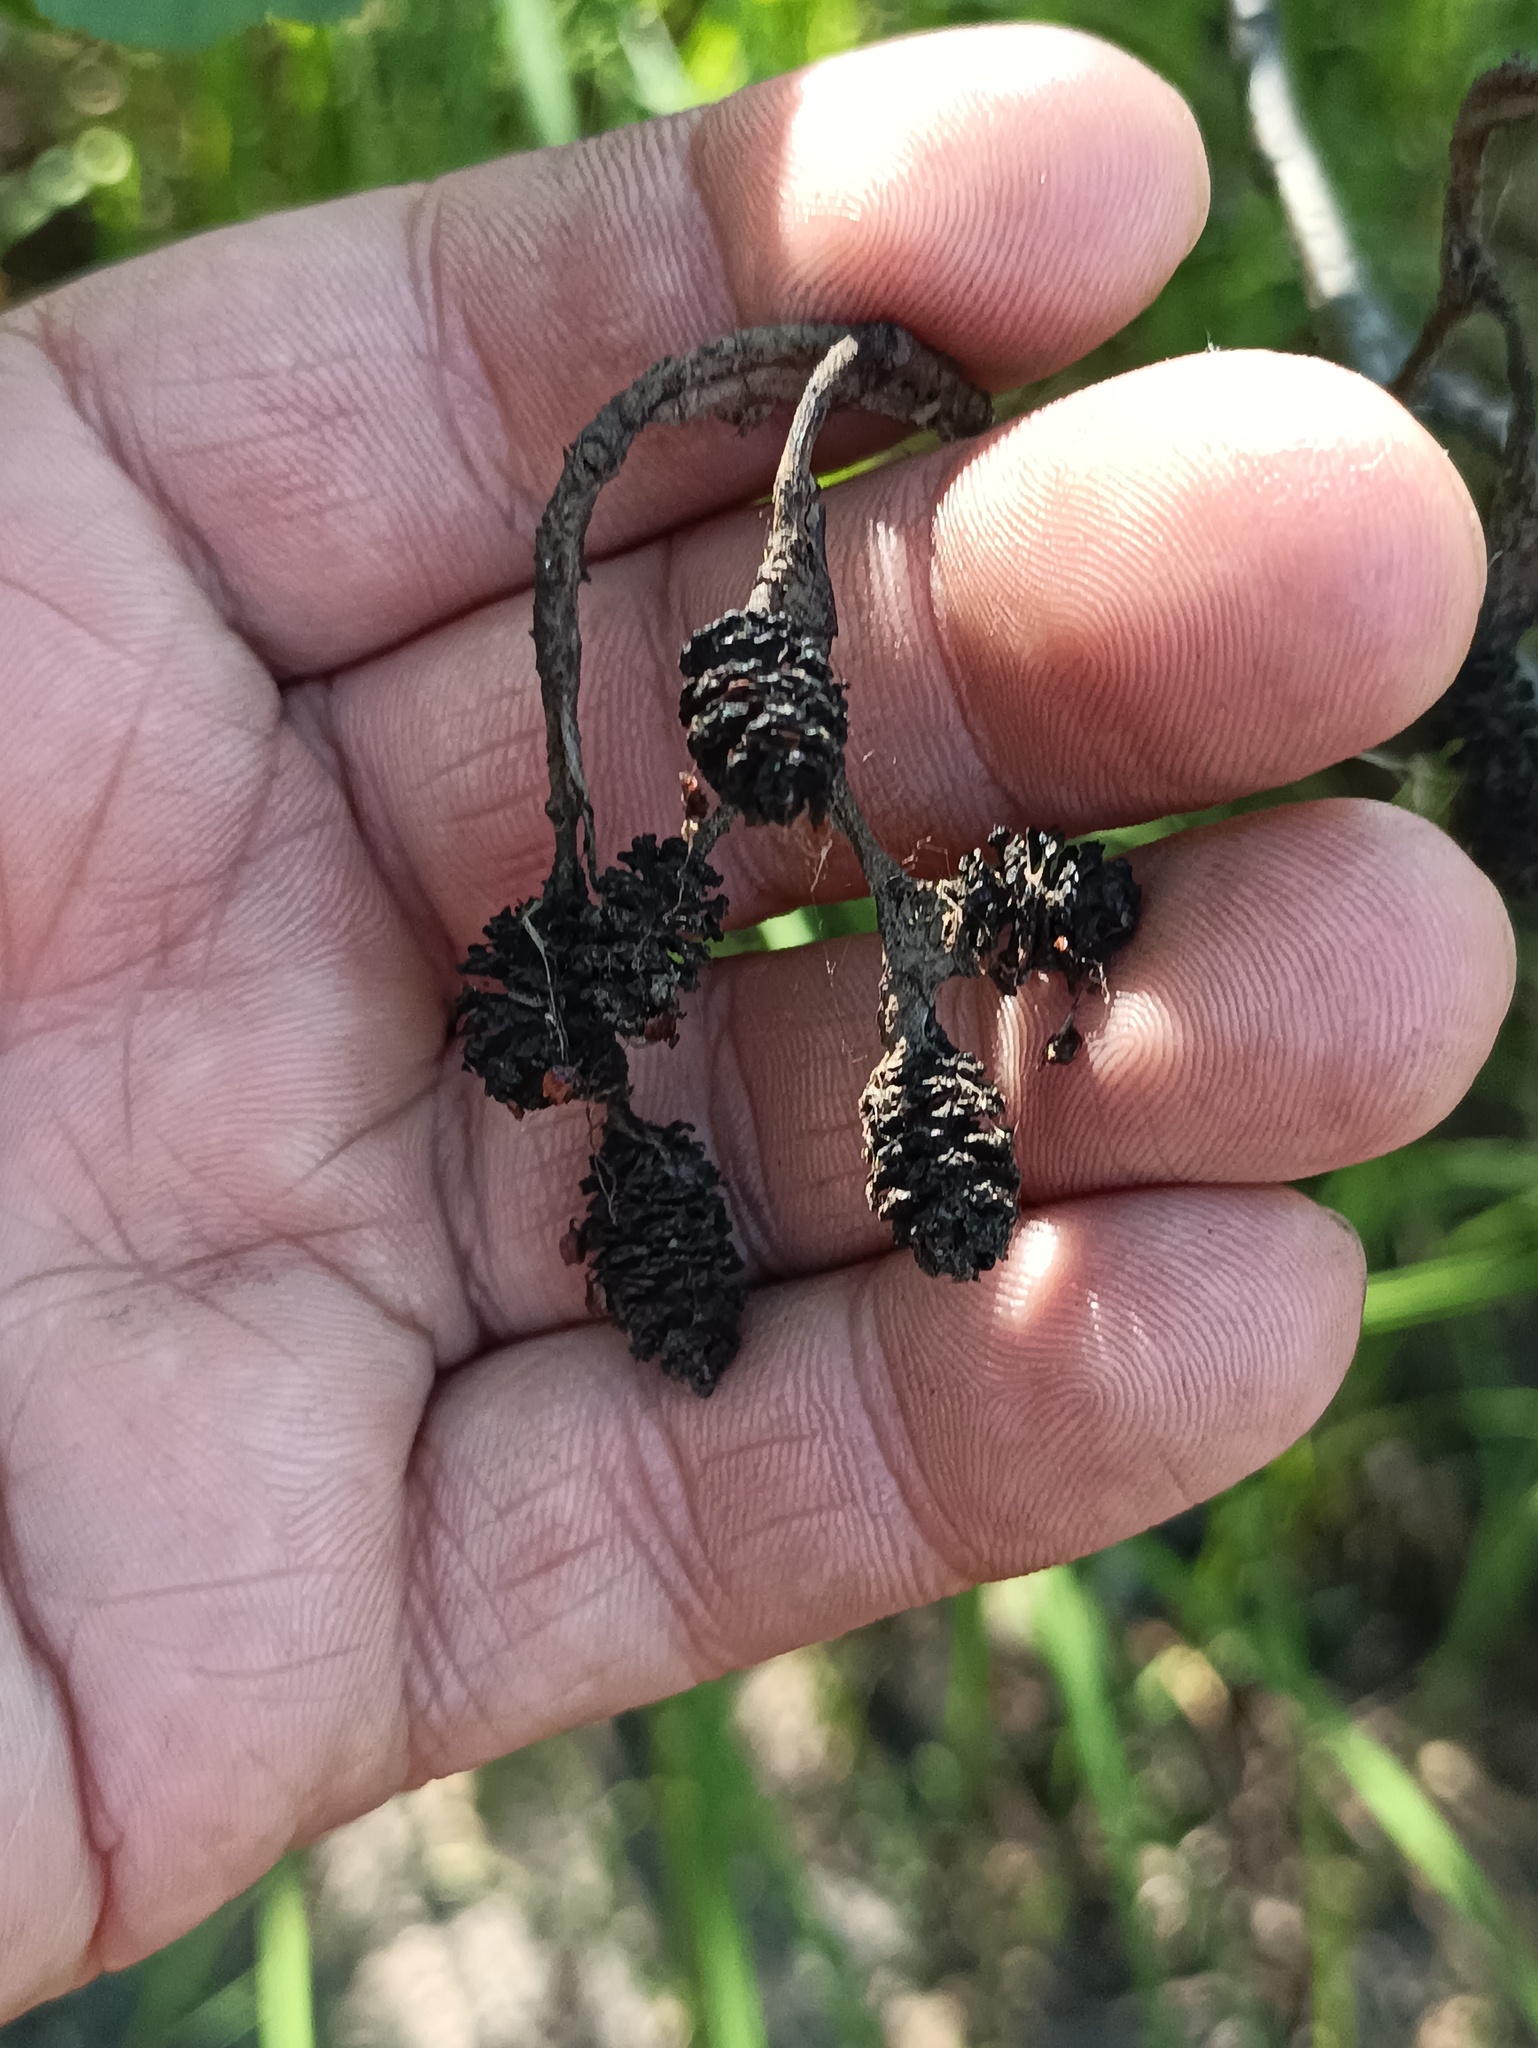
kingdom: Plantae
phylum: Tracheophyta
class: Magnoliopsida
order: Fagales
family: Betulaceae
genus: Alnus
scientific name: Alnus glutinosa
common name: Black alder
